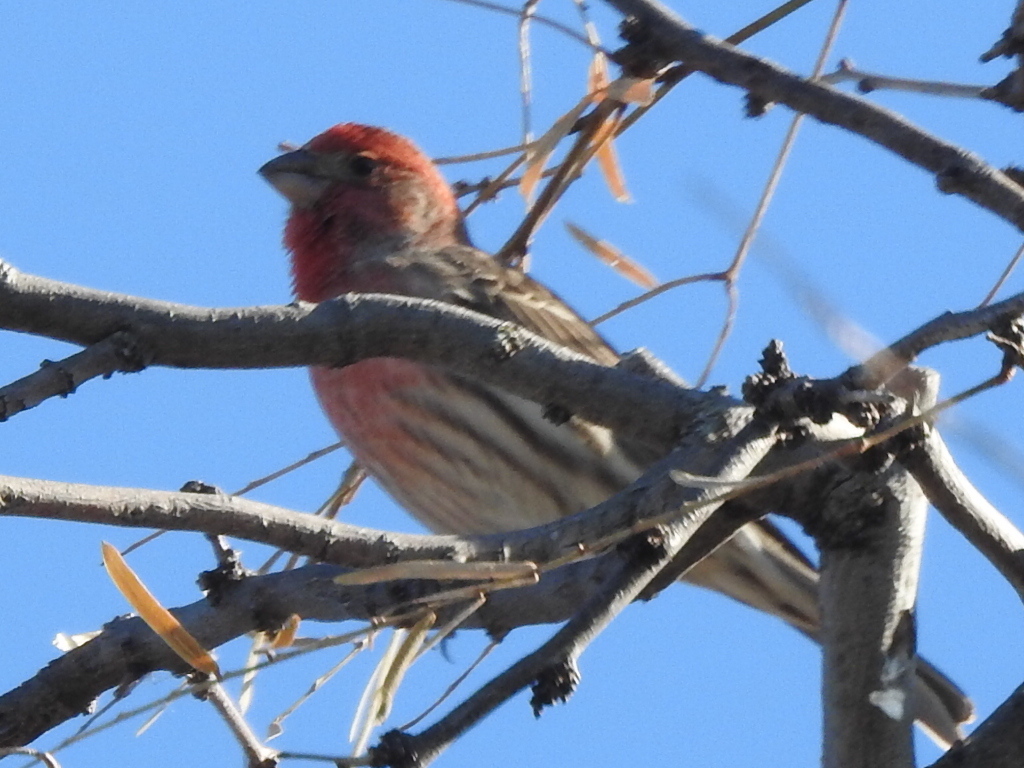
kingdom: Animalia
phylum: Chordata
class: Aves
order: Passeriformes
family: Fringillidae
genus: Haemorhous
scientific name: Haemorhous mexicanus
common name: House finch
